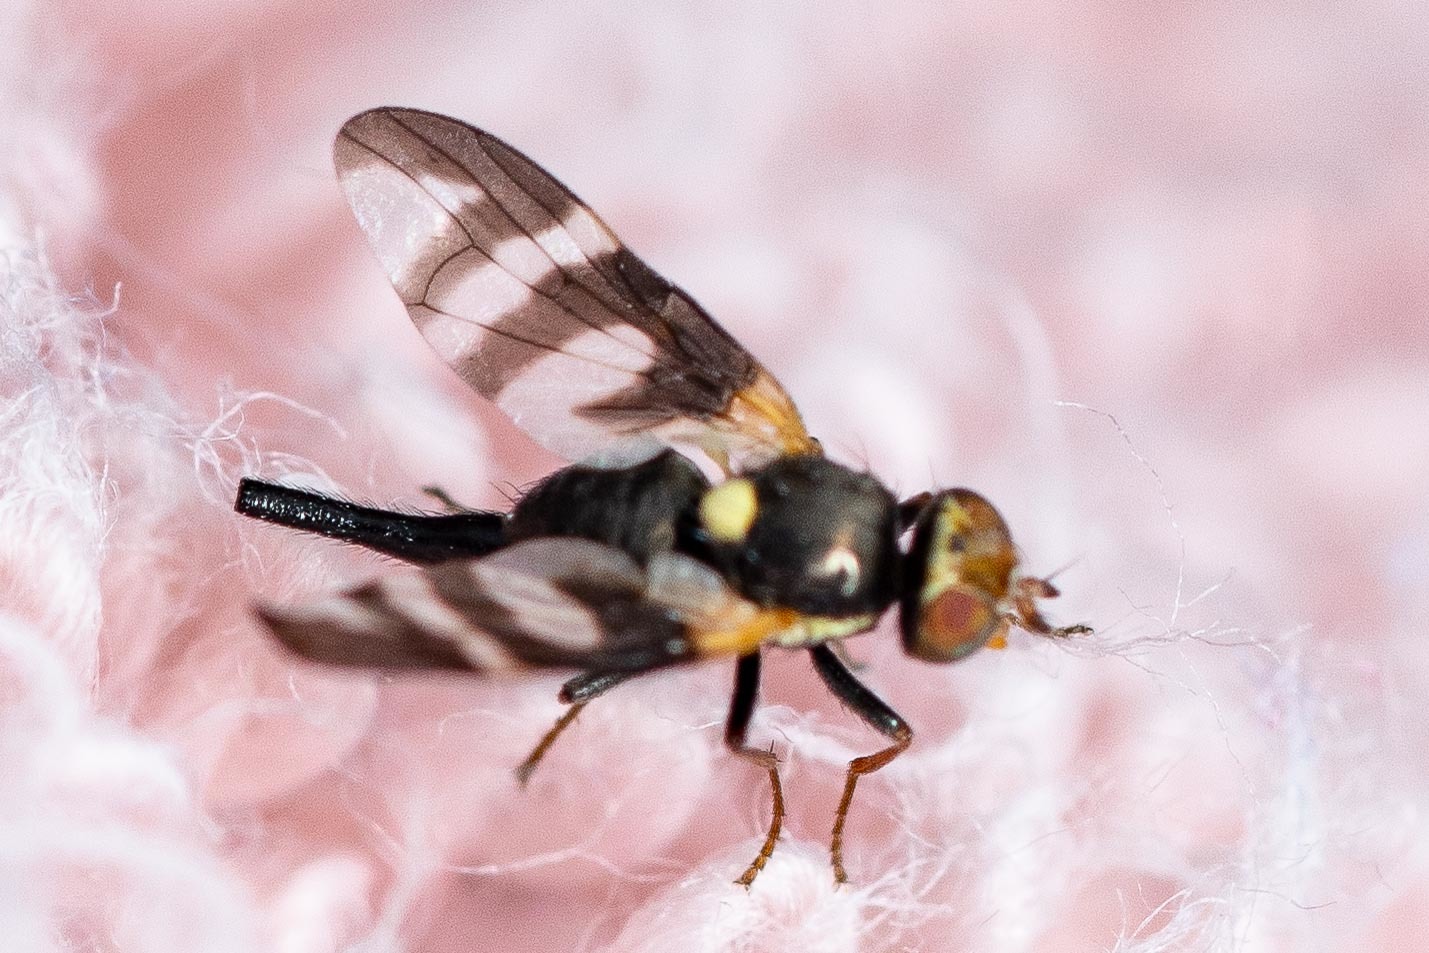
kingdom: Animalia
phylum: Arthropoda
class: Insecta
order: Diptera
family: Tephritidae
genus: Urophora
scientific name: Urophora quadrifasciata
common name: Knapweed seedhead fly
